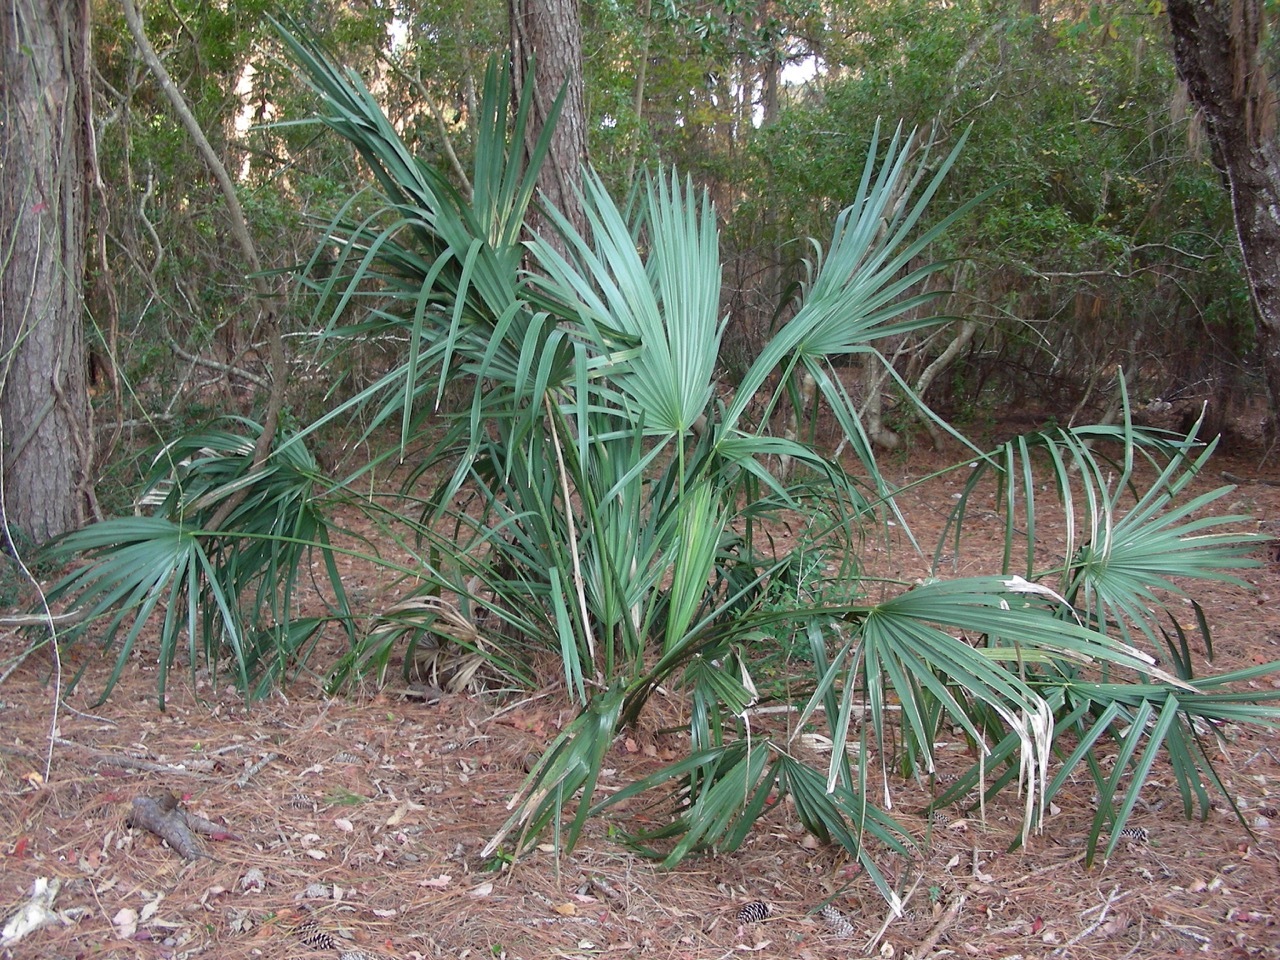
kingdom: Plantae
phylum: Tracheophyta
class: Liliopsida
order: Arecales
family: Arecaceae
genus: Sabal
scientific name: Sabal minor
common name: Dwarf palmetto
